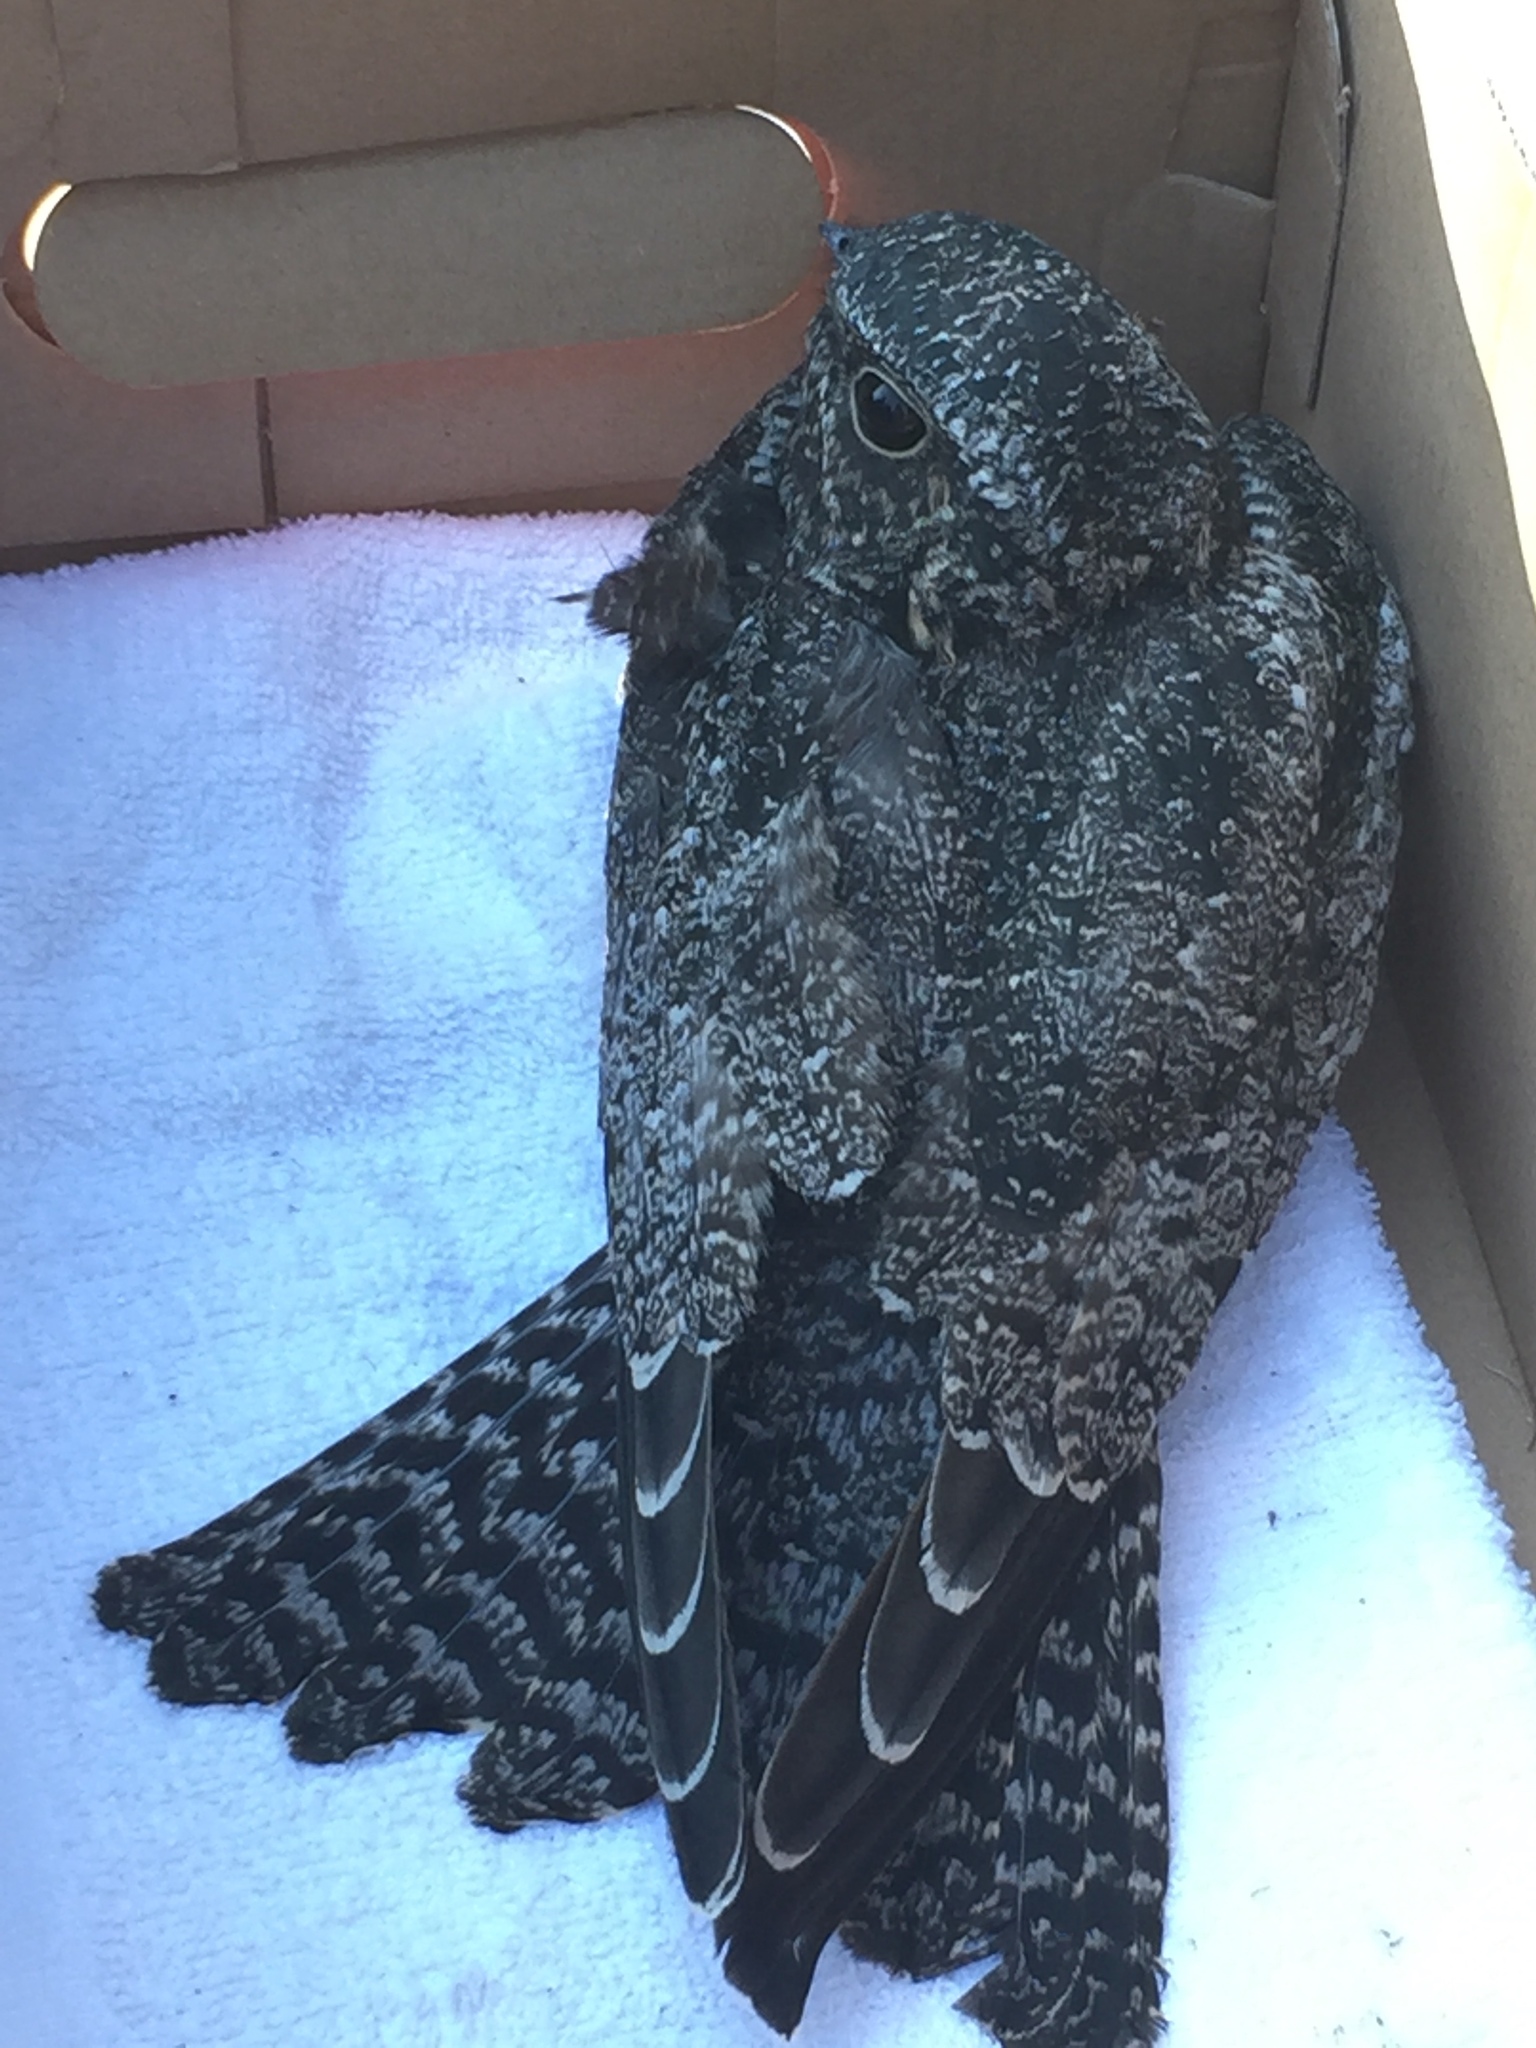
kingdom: Animalia
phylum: Chordata
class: Aves
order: Caprimulgiformes
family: Caprimulgidae
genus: Chordeiles
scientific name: Chordeiles minor
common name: Common nighthawk
